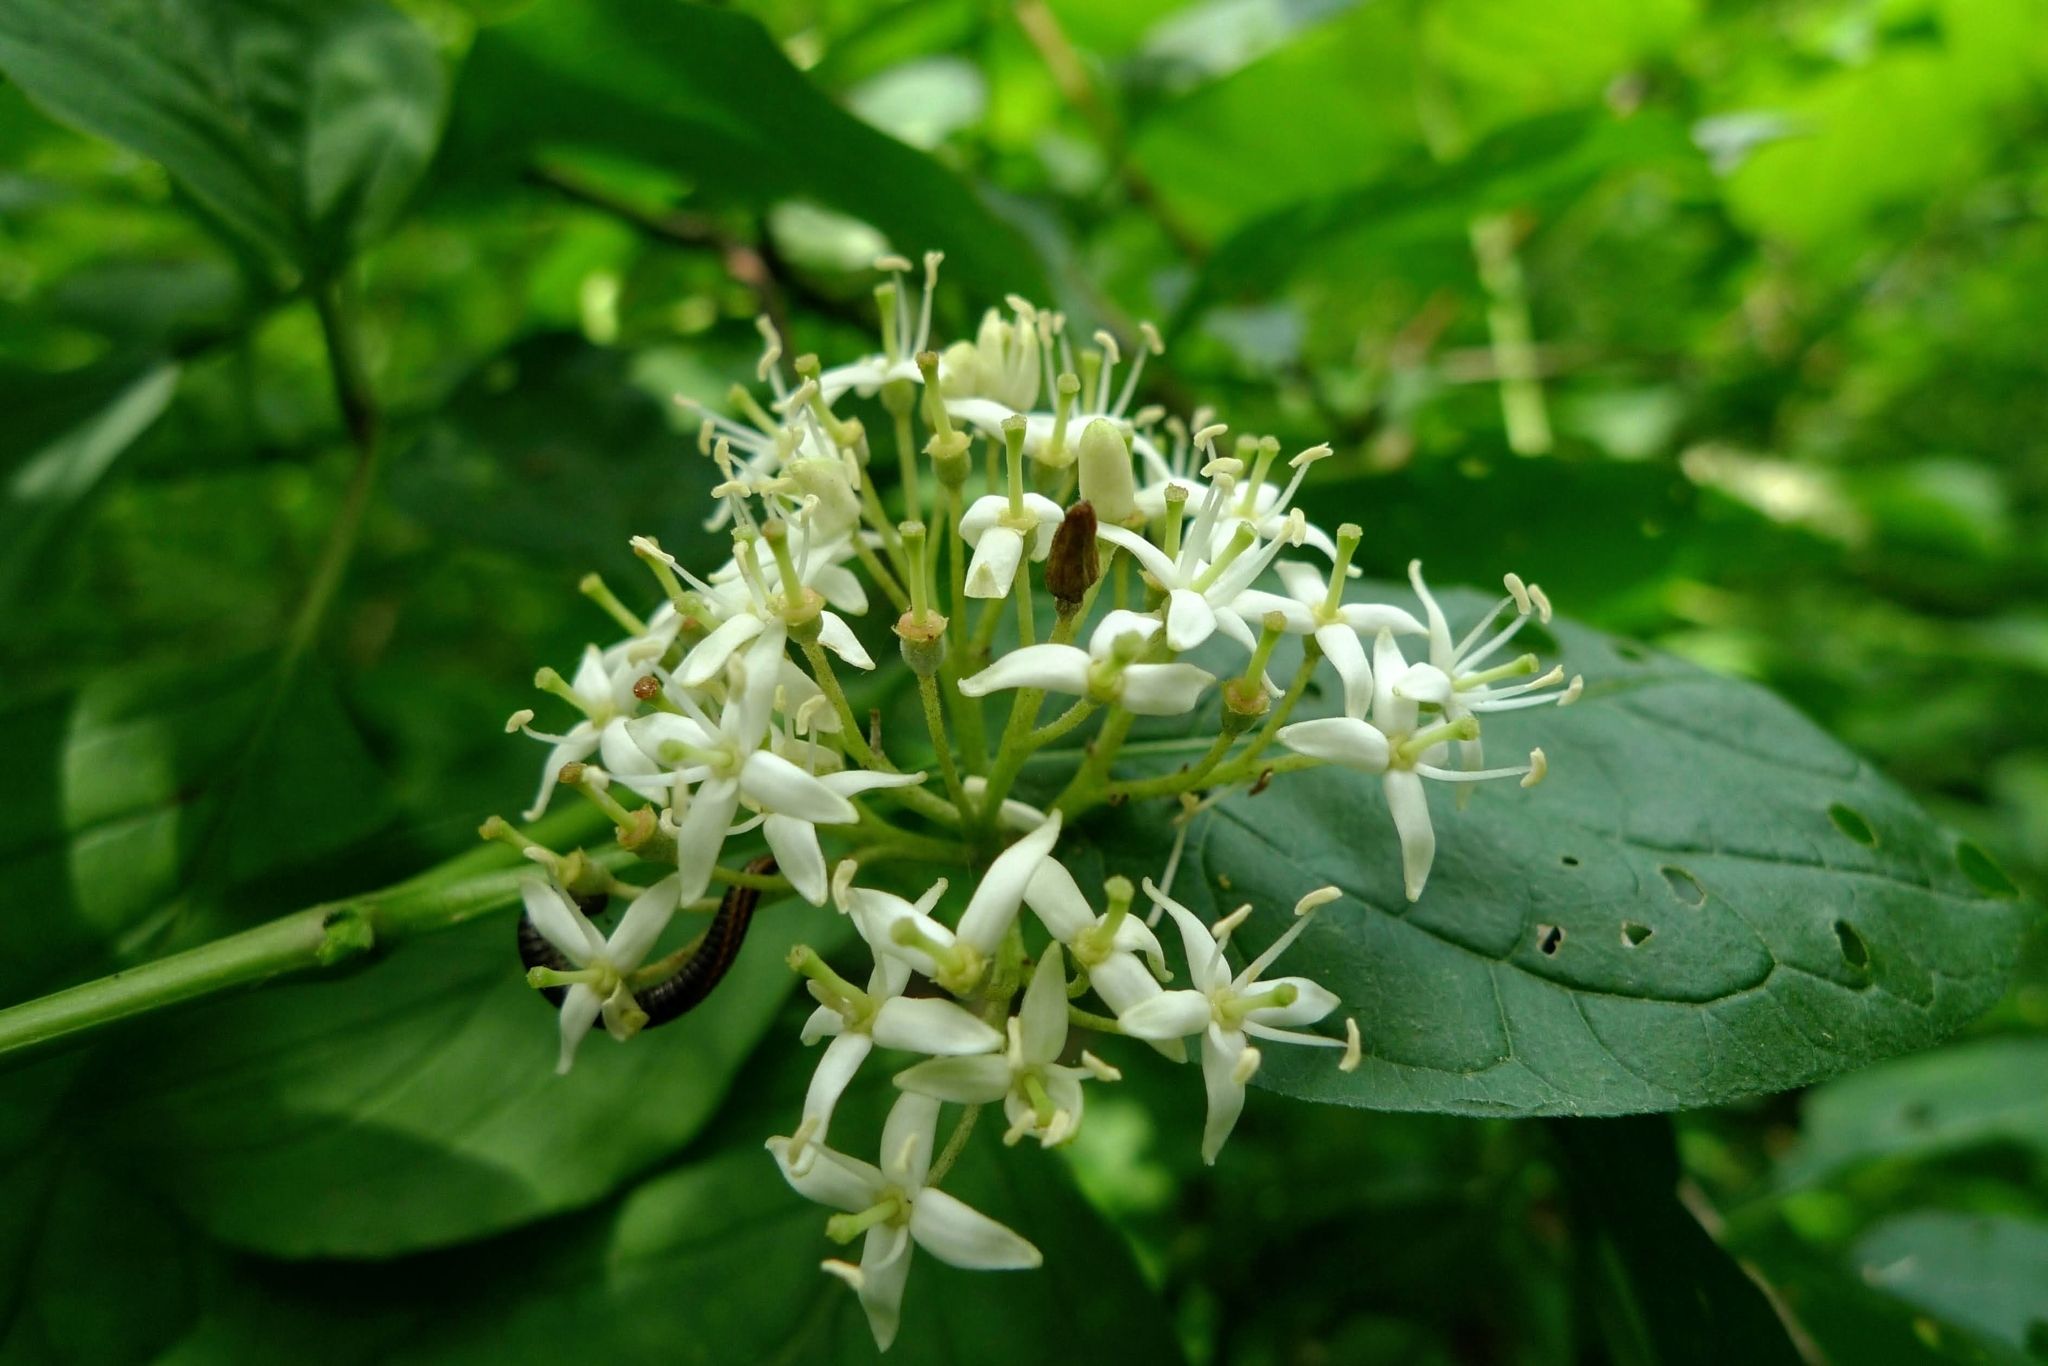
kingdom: Plantae
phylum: Tracheophyta
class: Magnoliopsida
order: Cornales
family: Cornaceae
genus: Cornus
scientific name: Cornus sanguinea
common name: Dogwood
